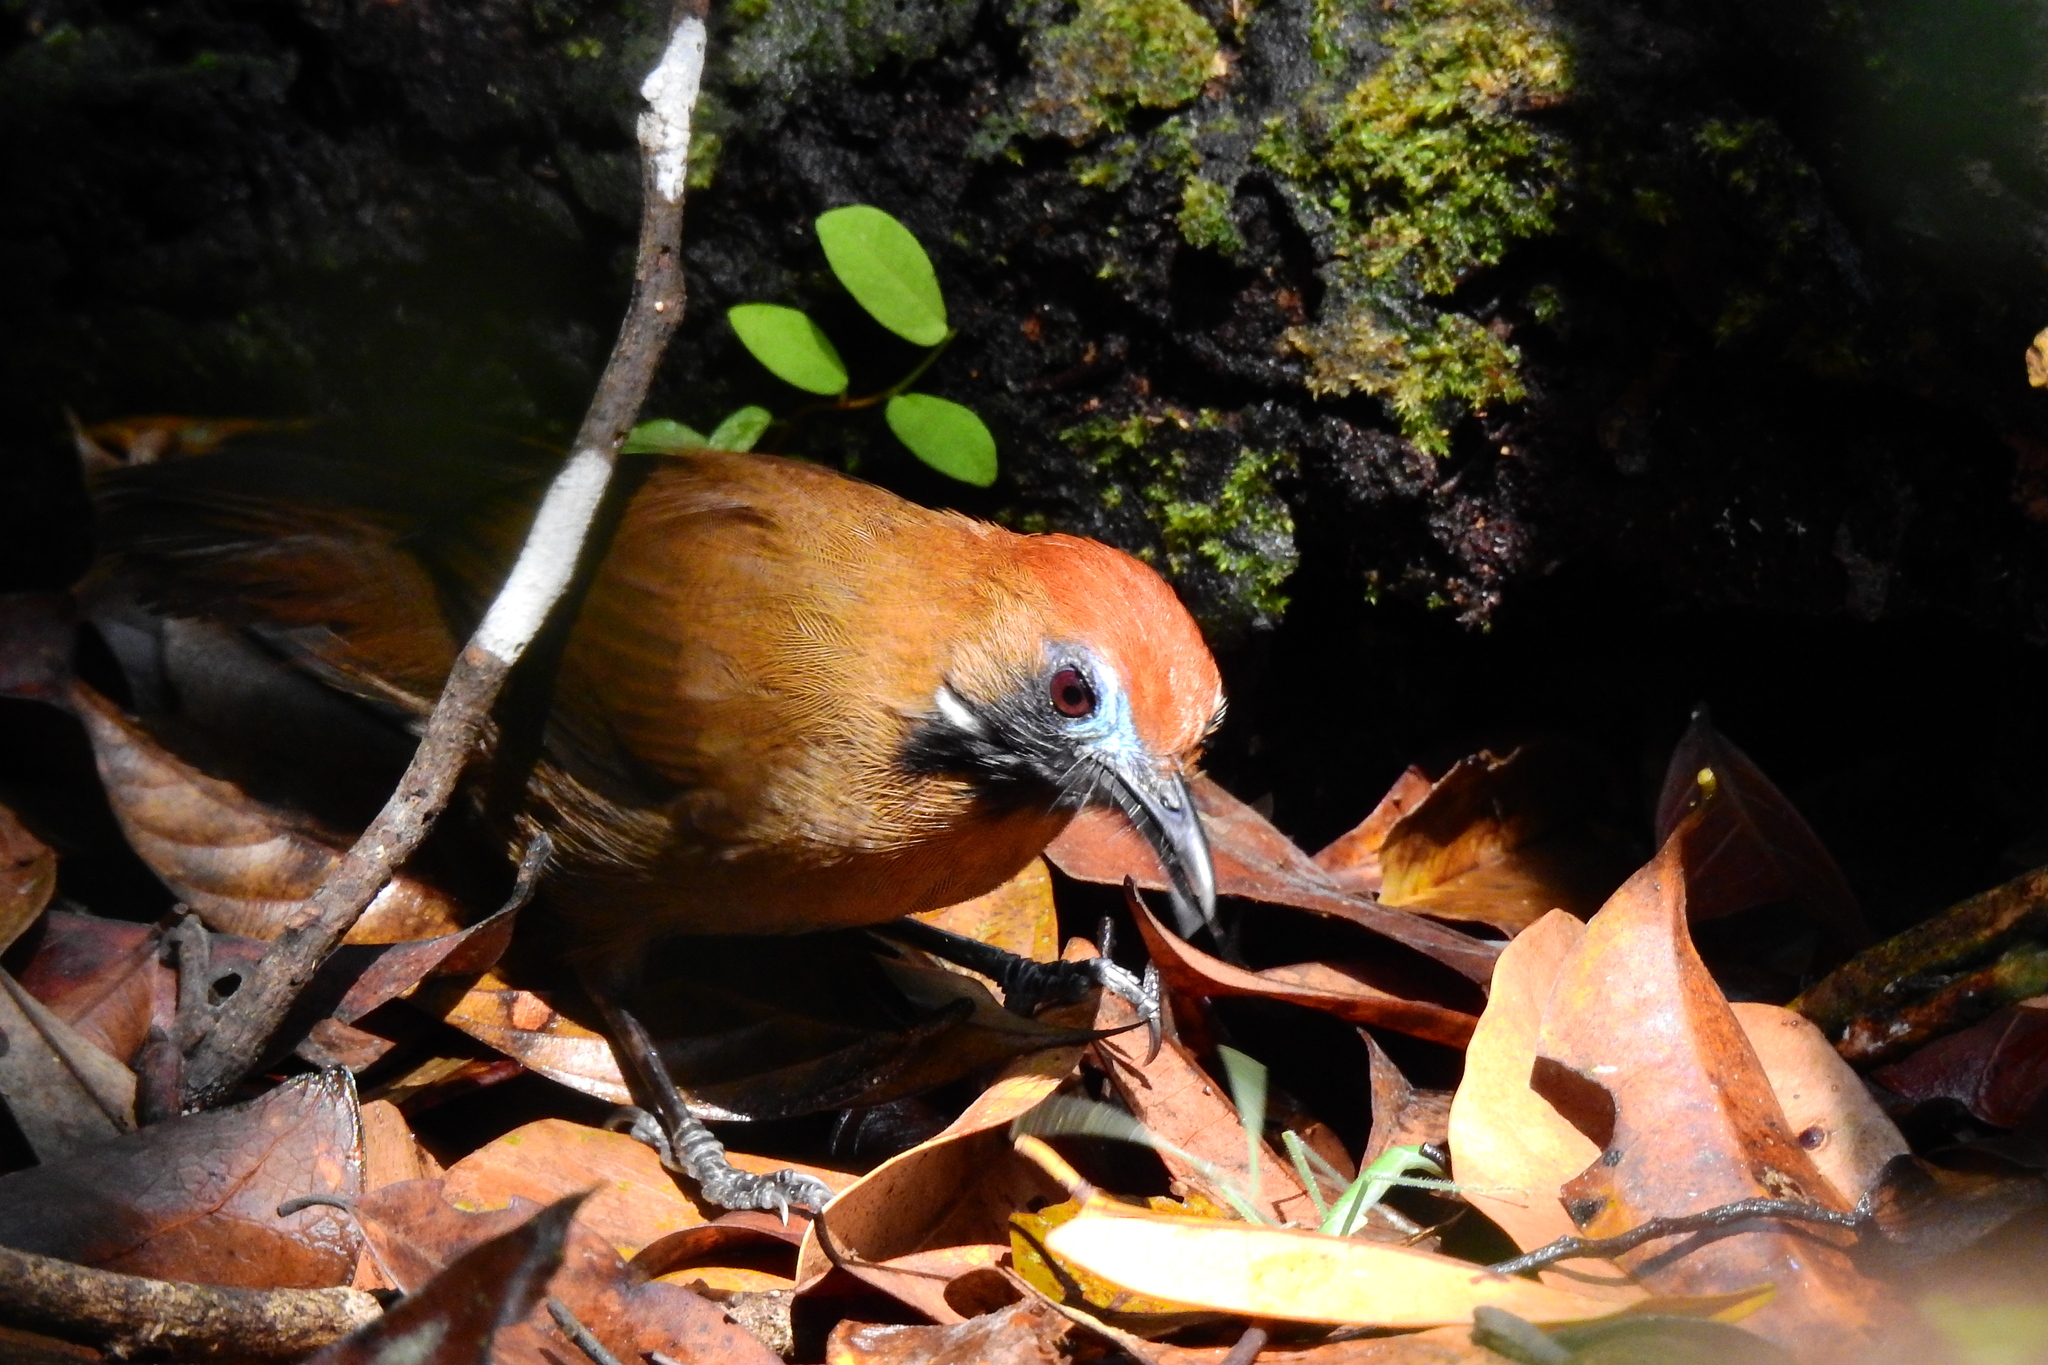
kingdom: Animalia
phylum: Chordata
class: Aves
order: Passeriformes
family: Timaliidae
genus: Macronus
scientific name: Macronus ptilosus
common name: Fluffy-backed tit-babbler
